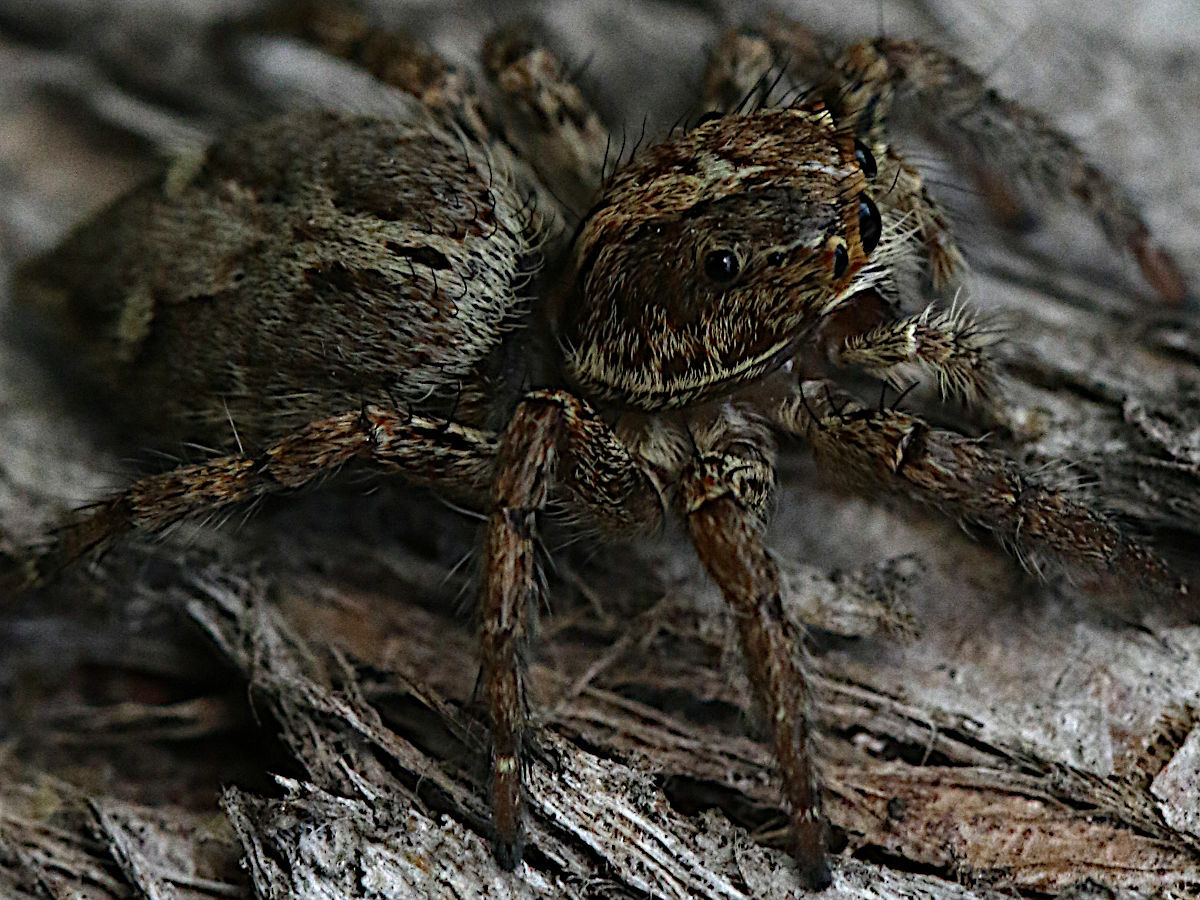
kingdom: Animalia
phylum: Arthropoda
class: Arachnida
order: Araneae
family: Salticidae
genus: Plexippus
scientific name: Plexippus paykulli
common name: Pantropical jumper
